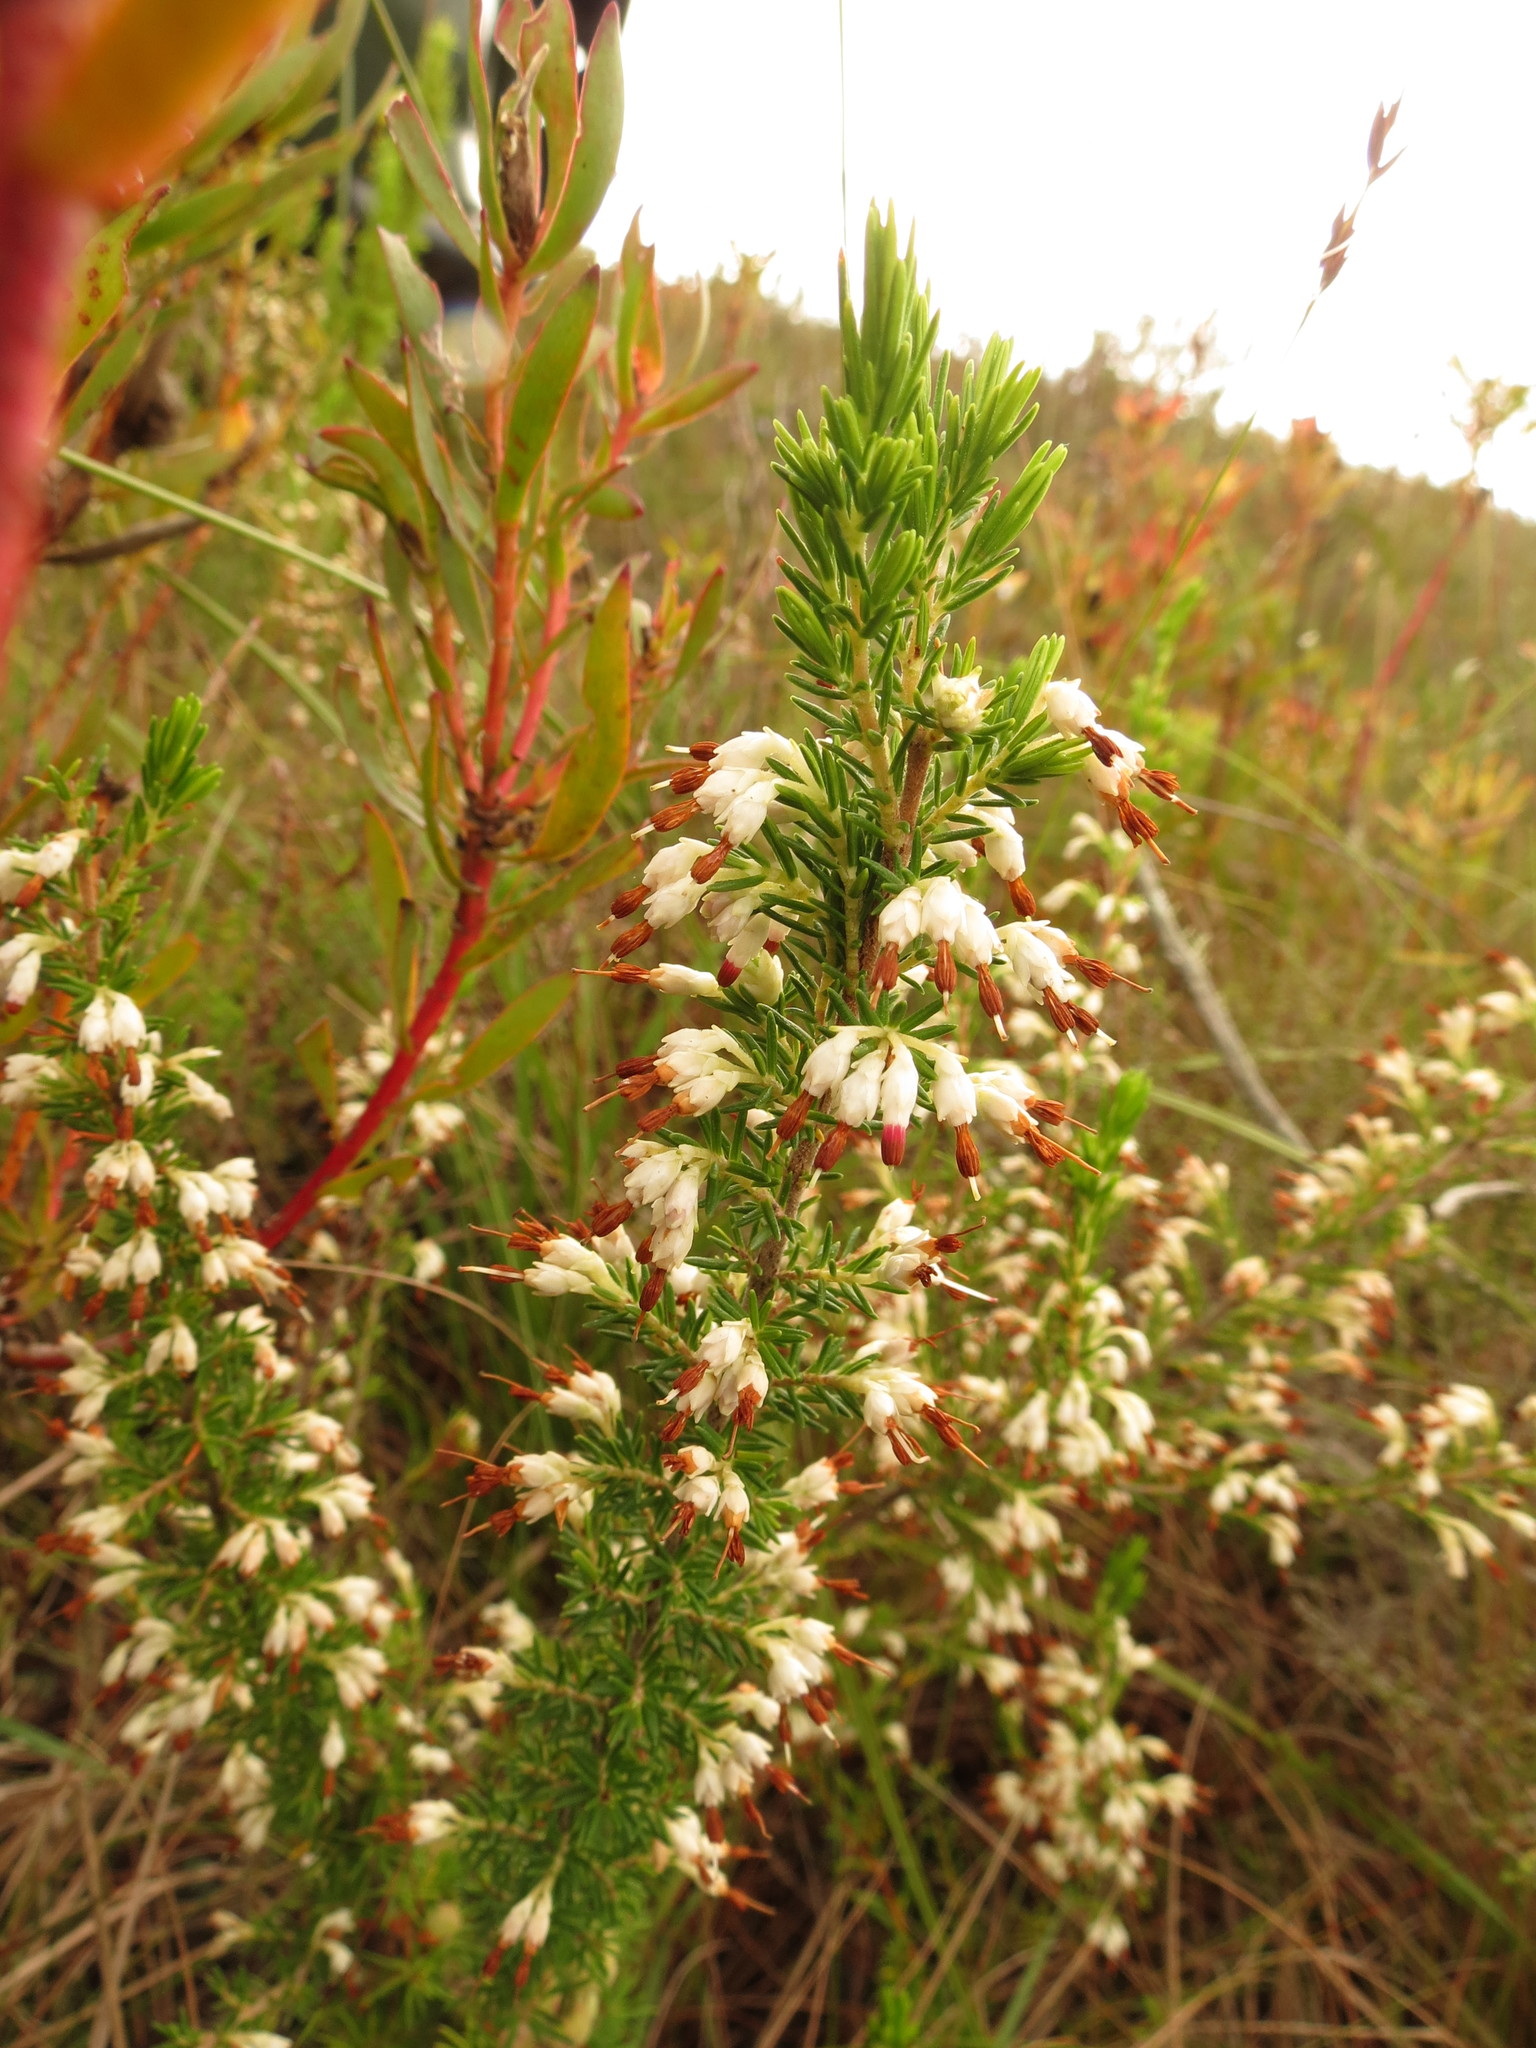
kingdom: Plantae
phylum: Tracheophyta
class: Magnoliopsida
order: Ericales
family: Ericaceae
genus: Erica
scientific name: Erica imbricata
